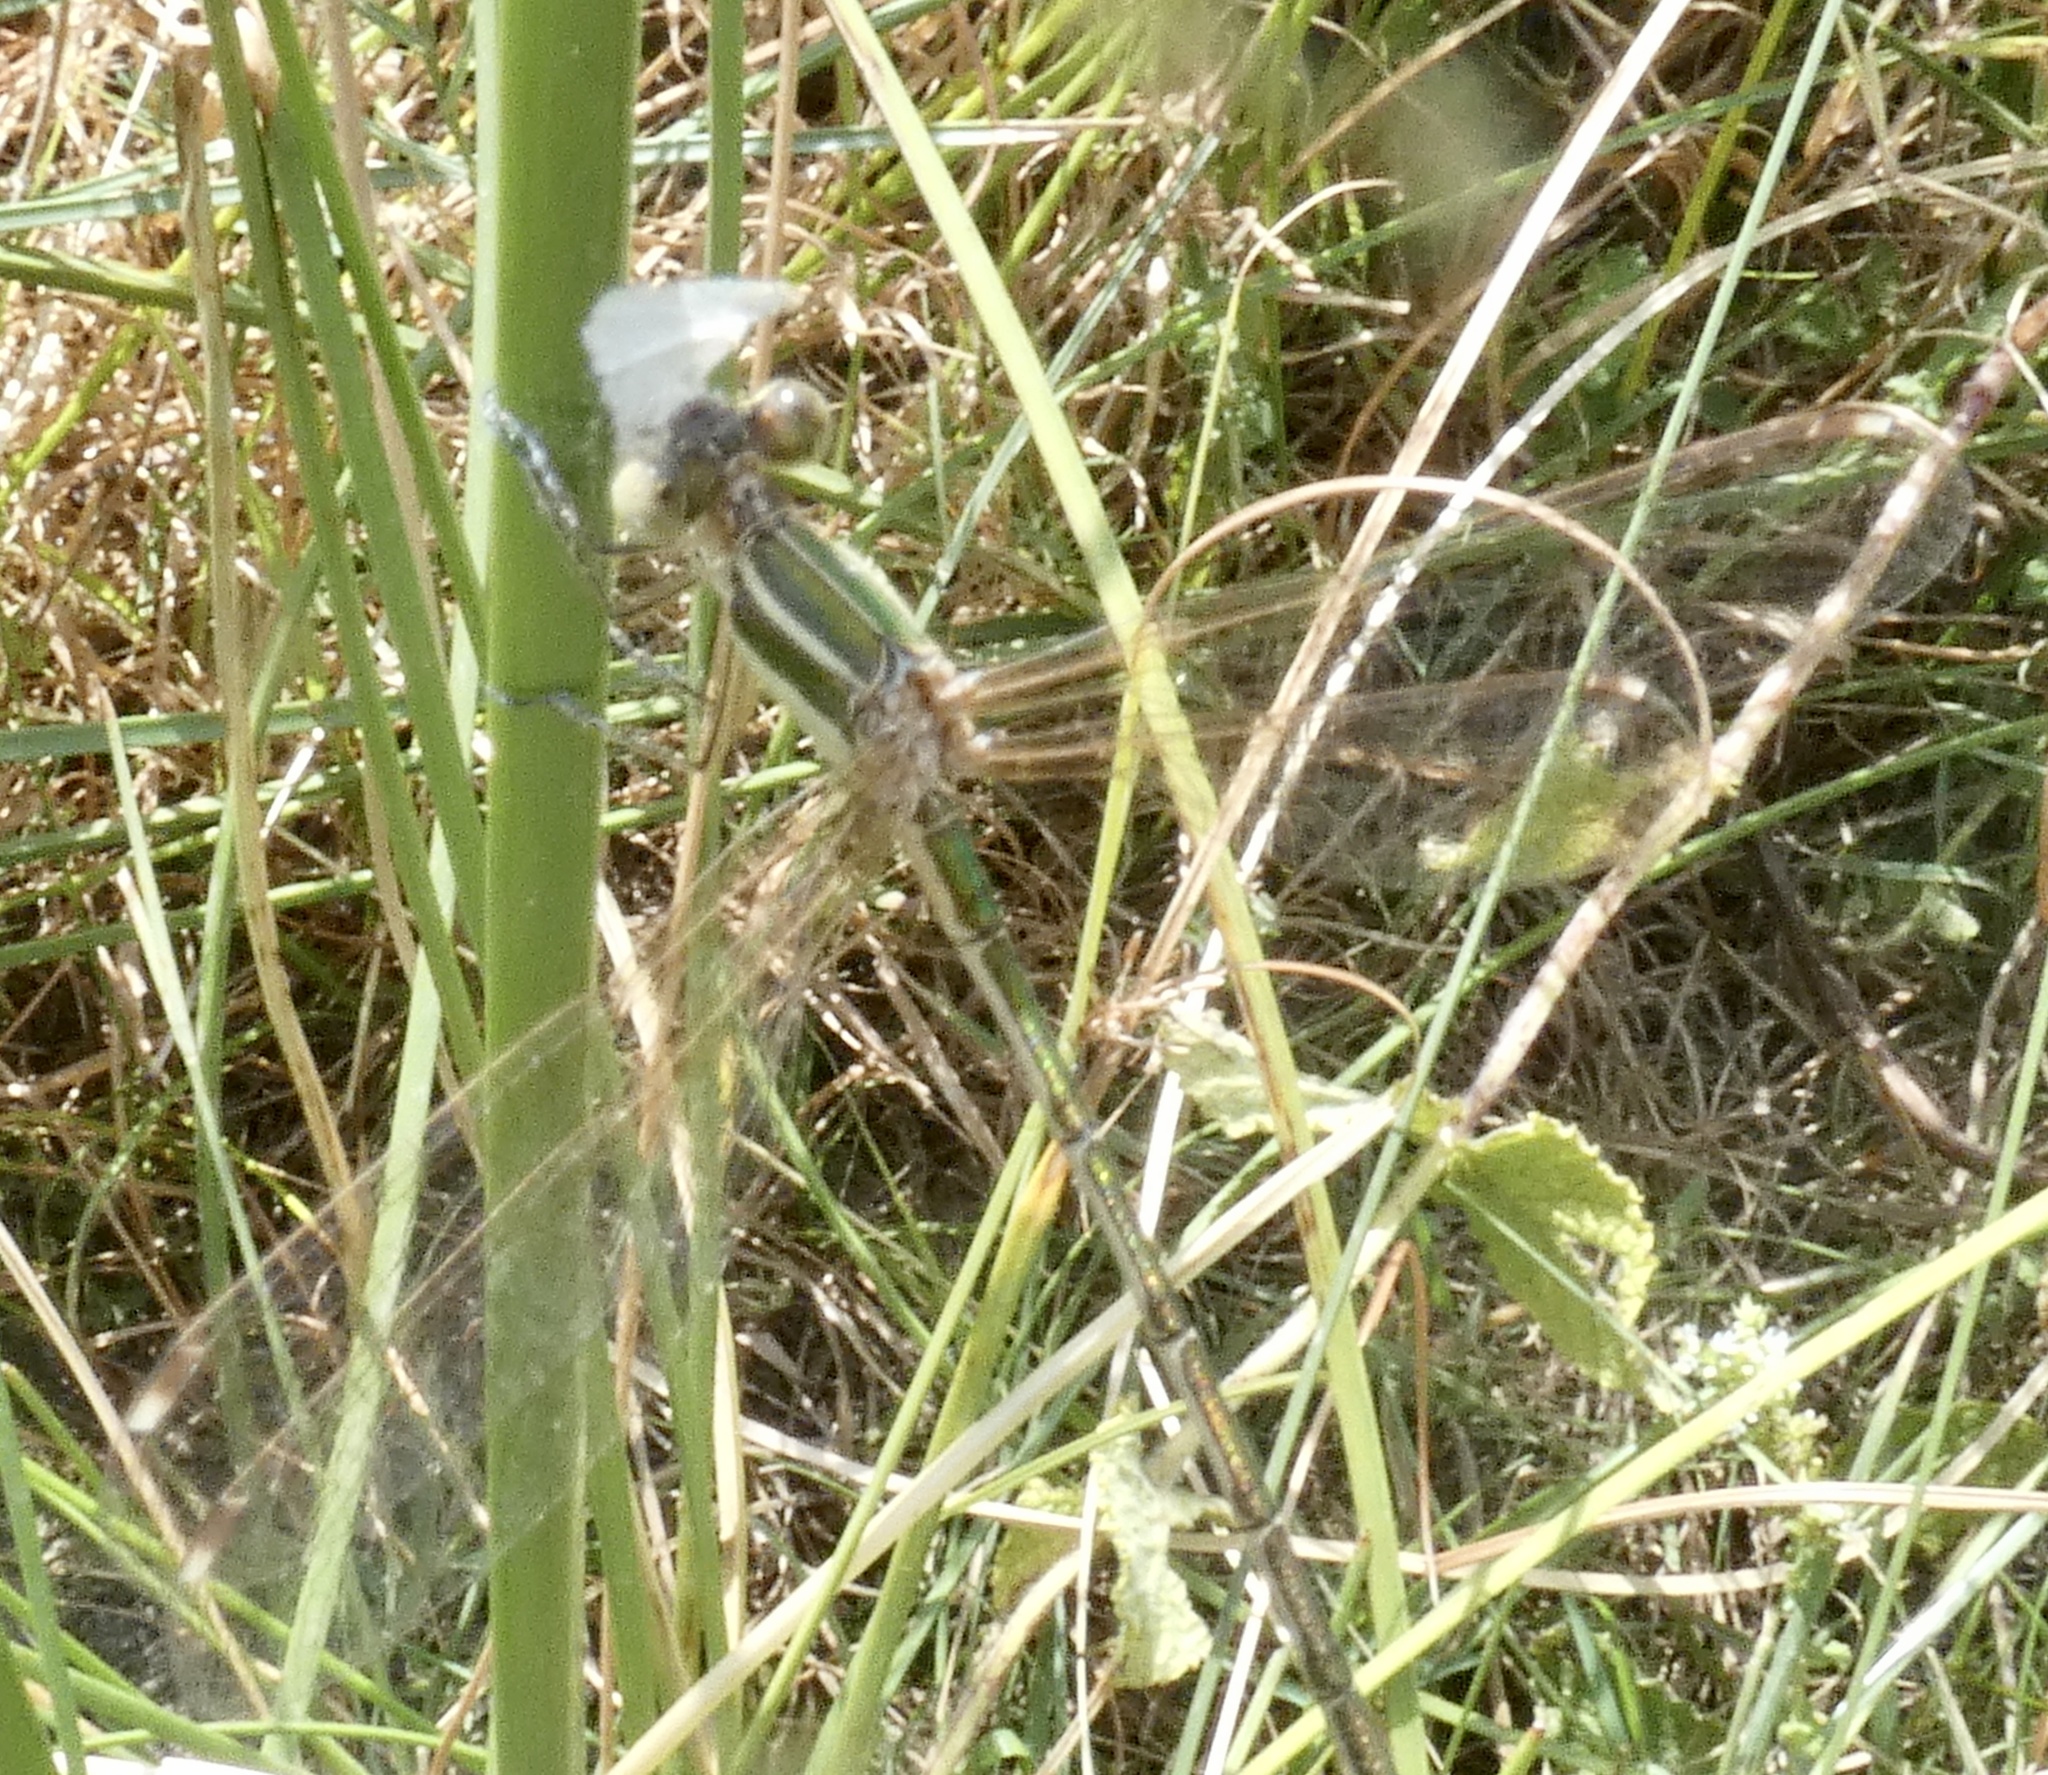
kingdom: Animalia
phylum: Arthropoda
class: Insecta
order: Odonata
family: Lestidae
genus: Lestes
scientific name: Lestes barbarus
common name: Migrant spreadwing
